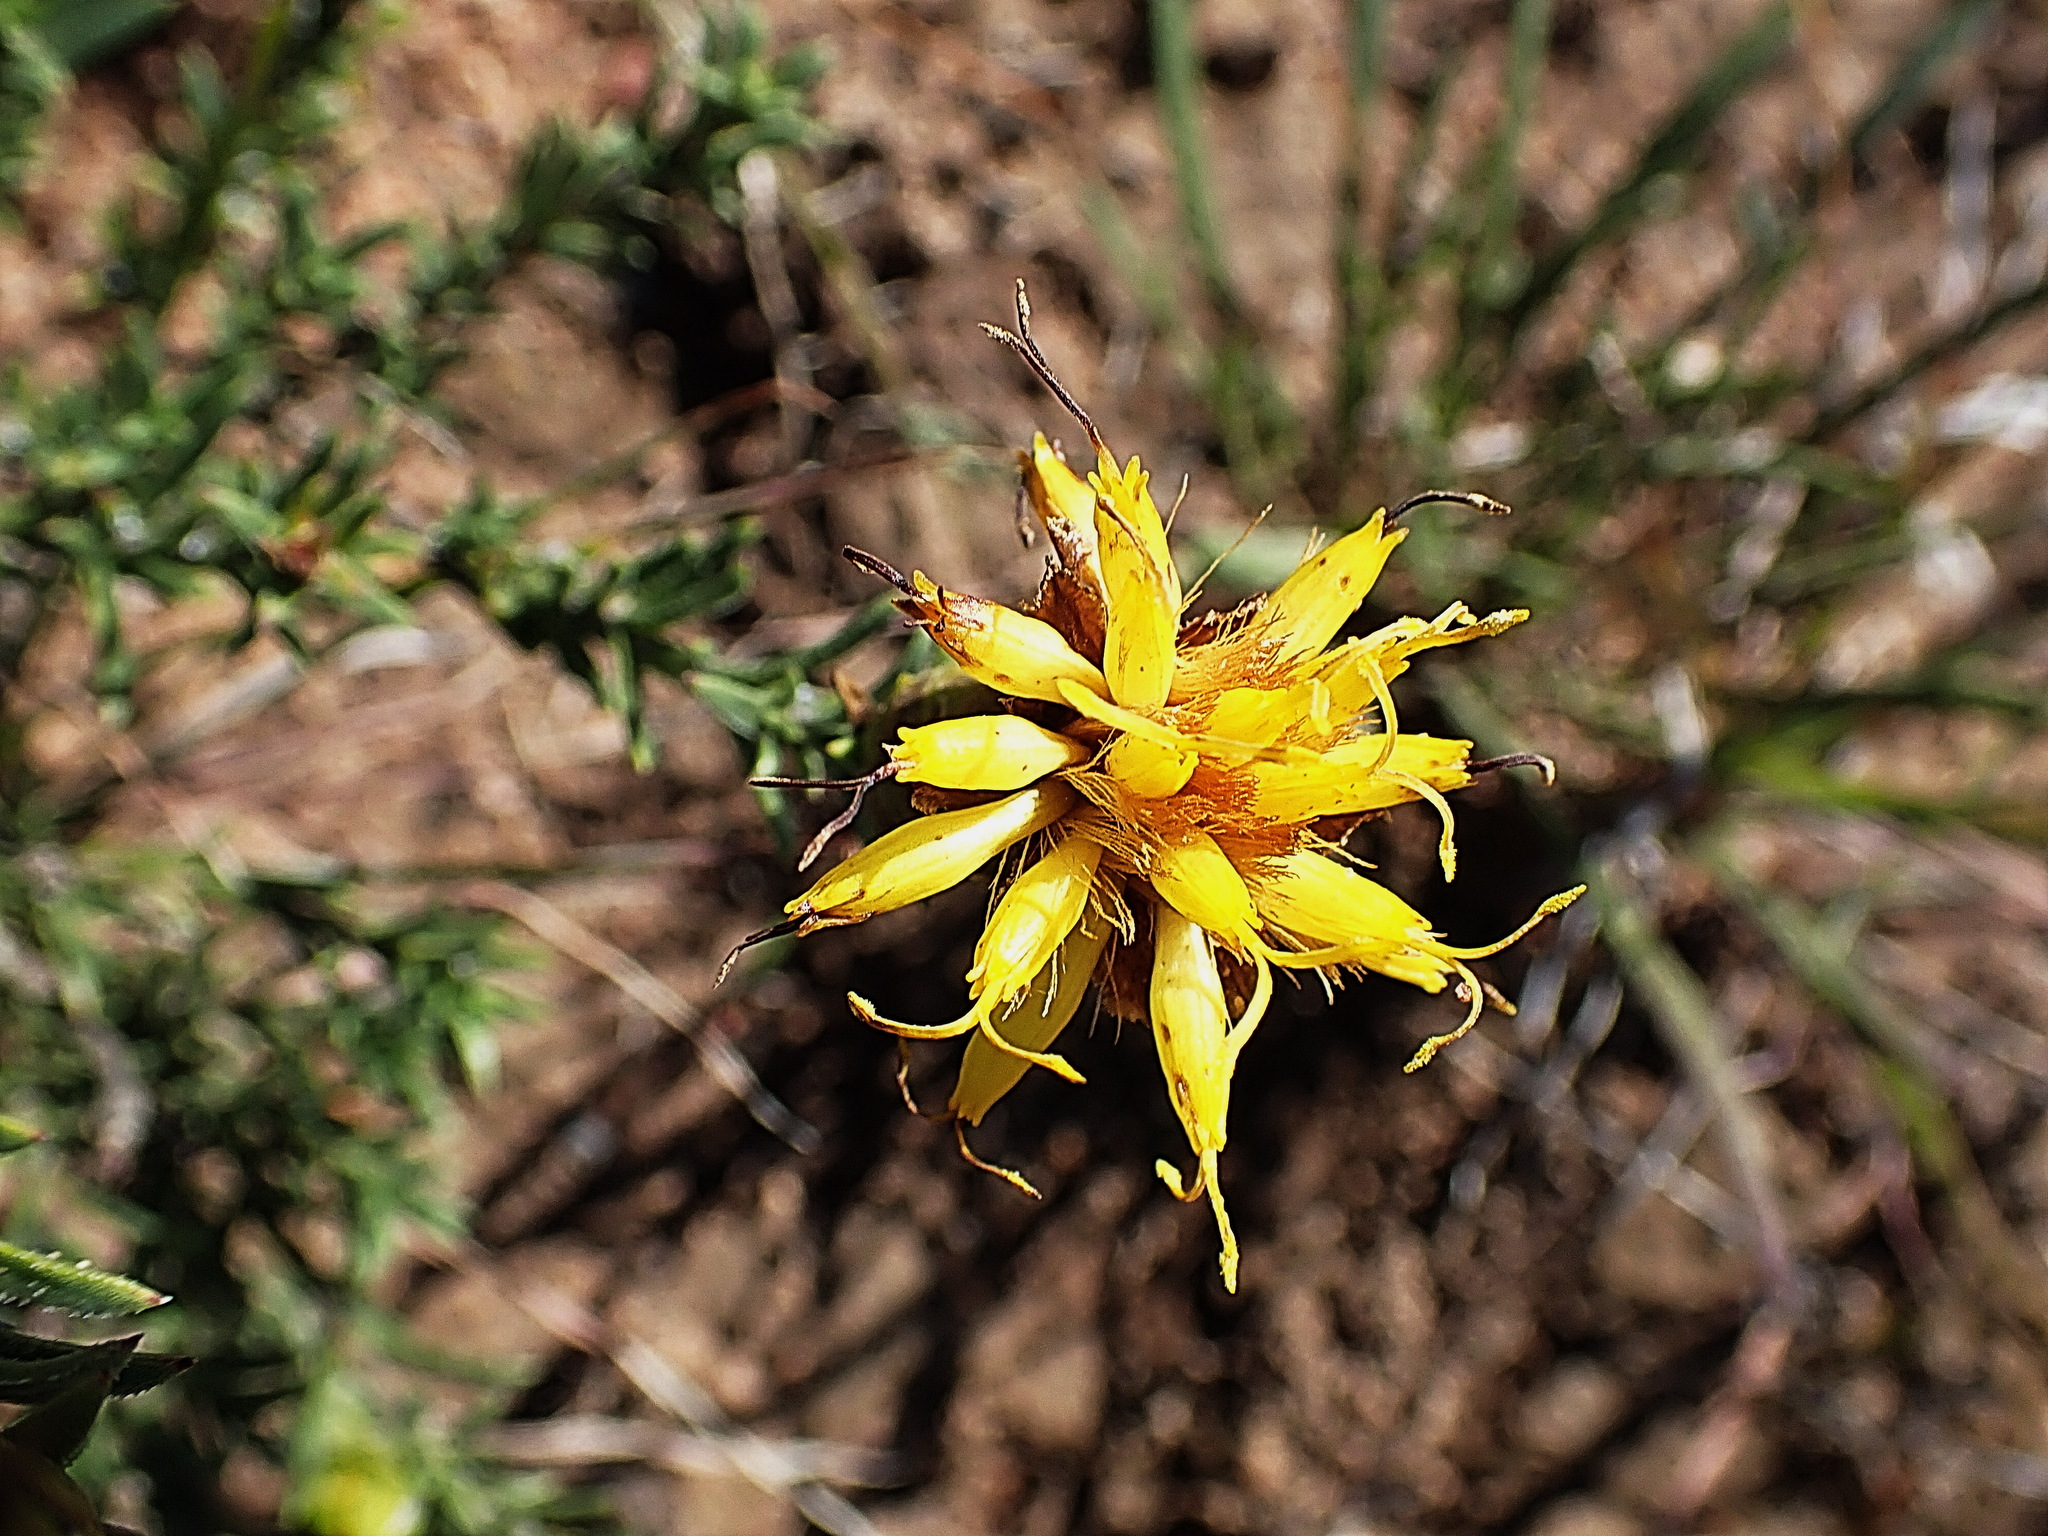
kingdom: Plantae
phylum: Tracheophyta
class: Magnoliopsida
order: Asterales
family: Asteraceae
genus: Pteronia
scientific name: Pteronia elongata
